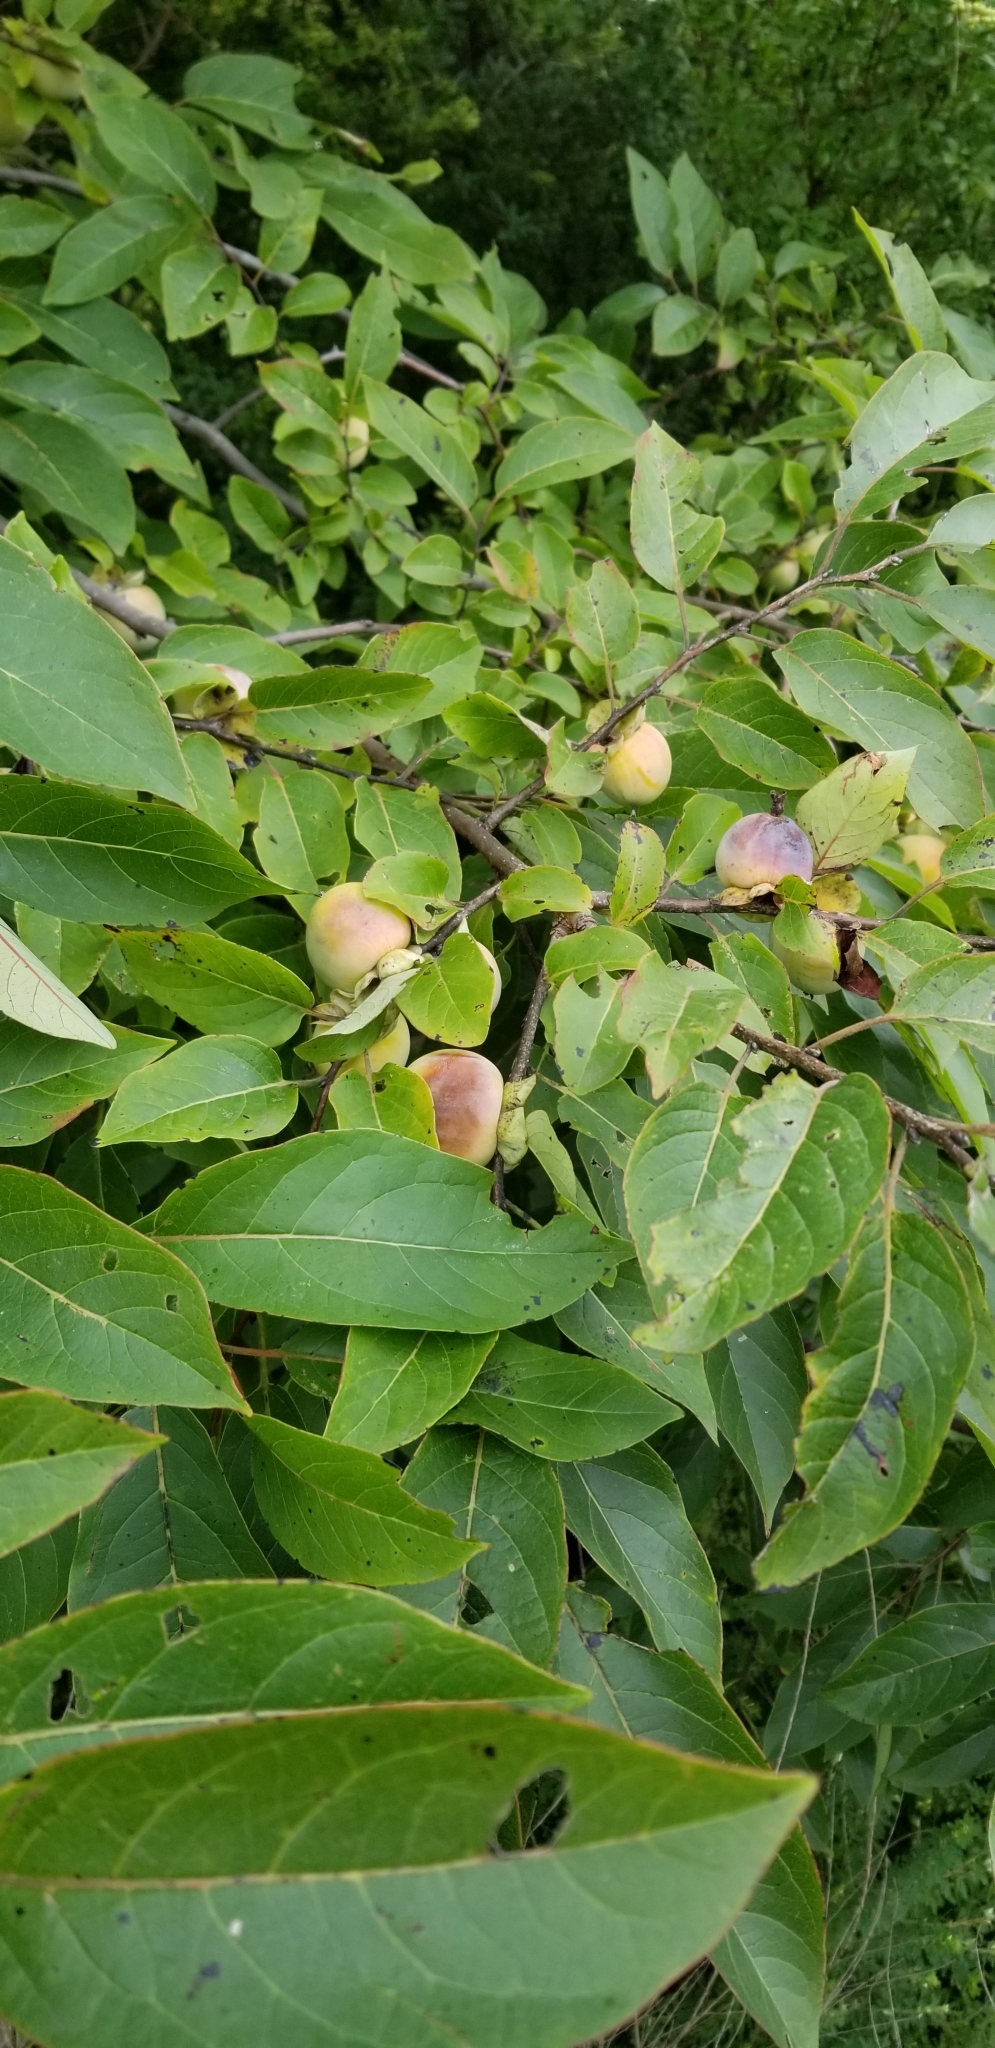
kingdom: Plantae
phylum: Tracheophyta
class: Magnoliopsida
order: Ericales
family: Ebenaceae
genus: Diospyros
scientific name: Diospyros virginiana
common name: Persimmon
